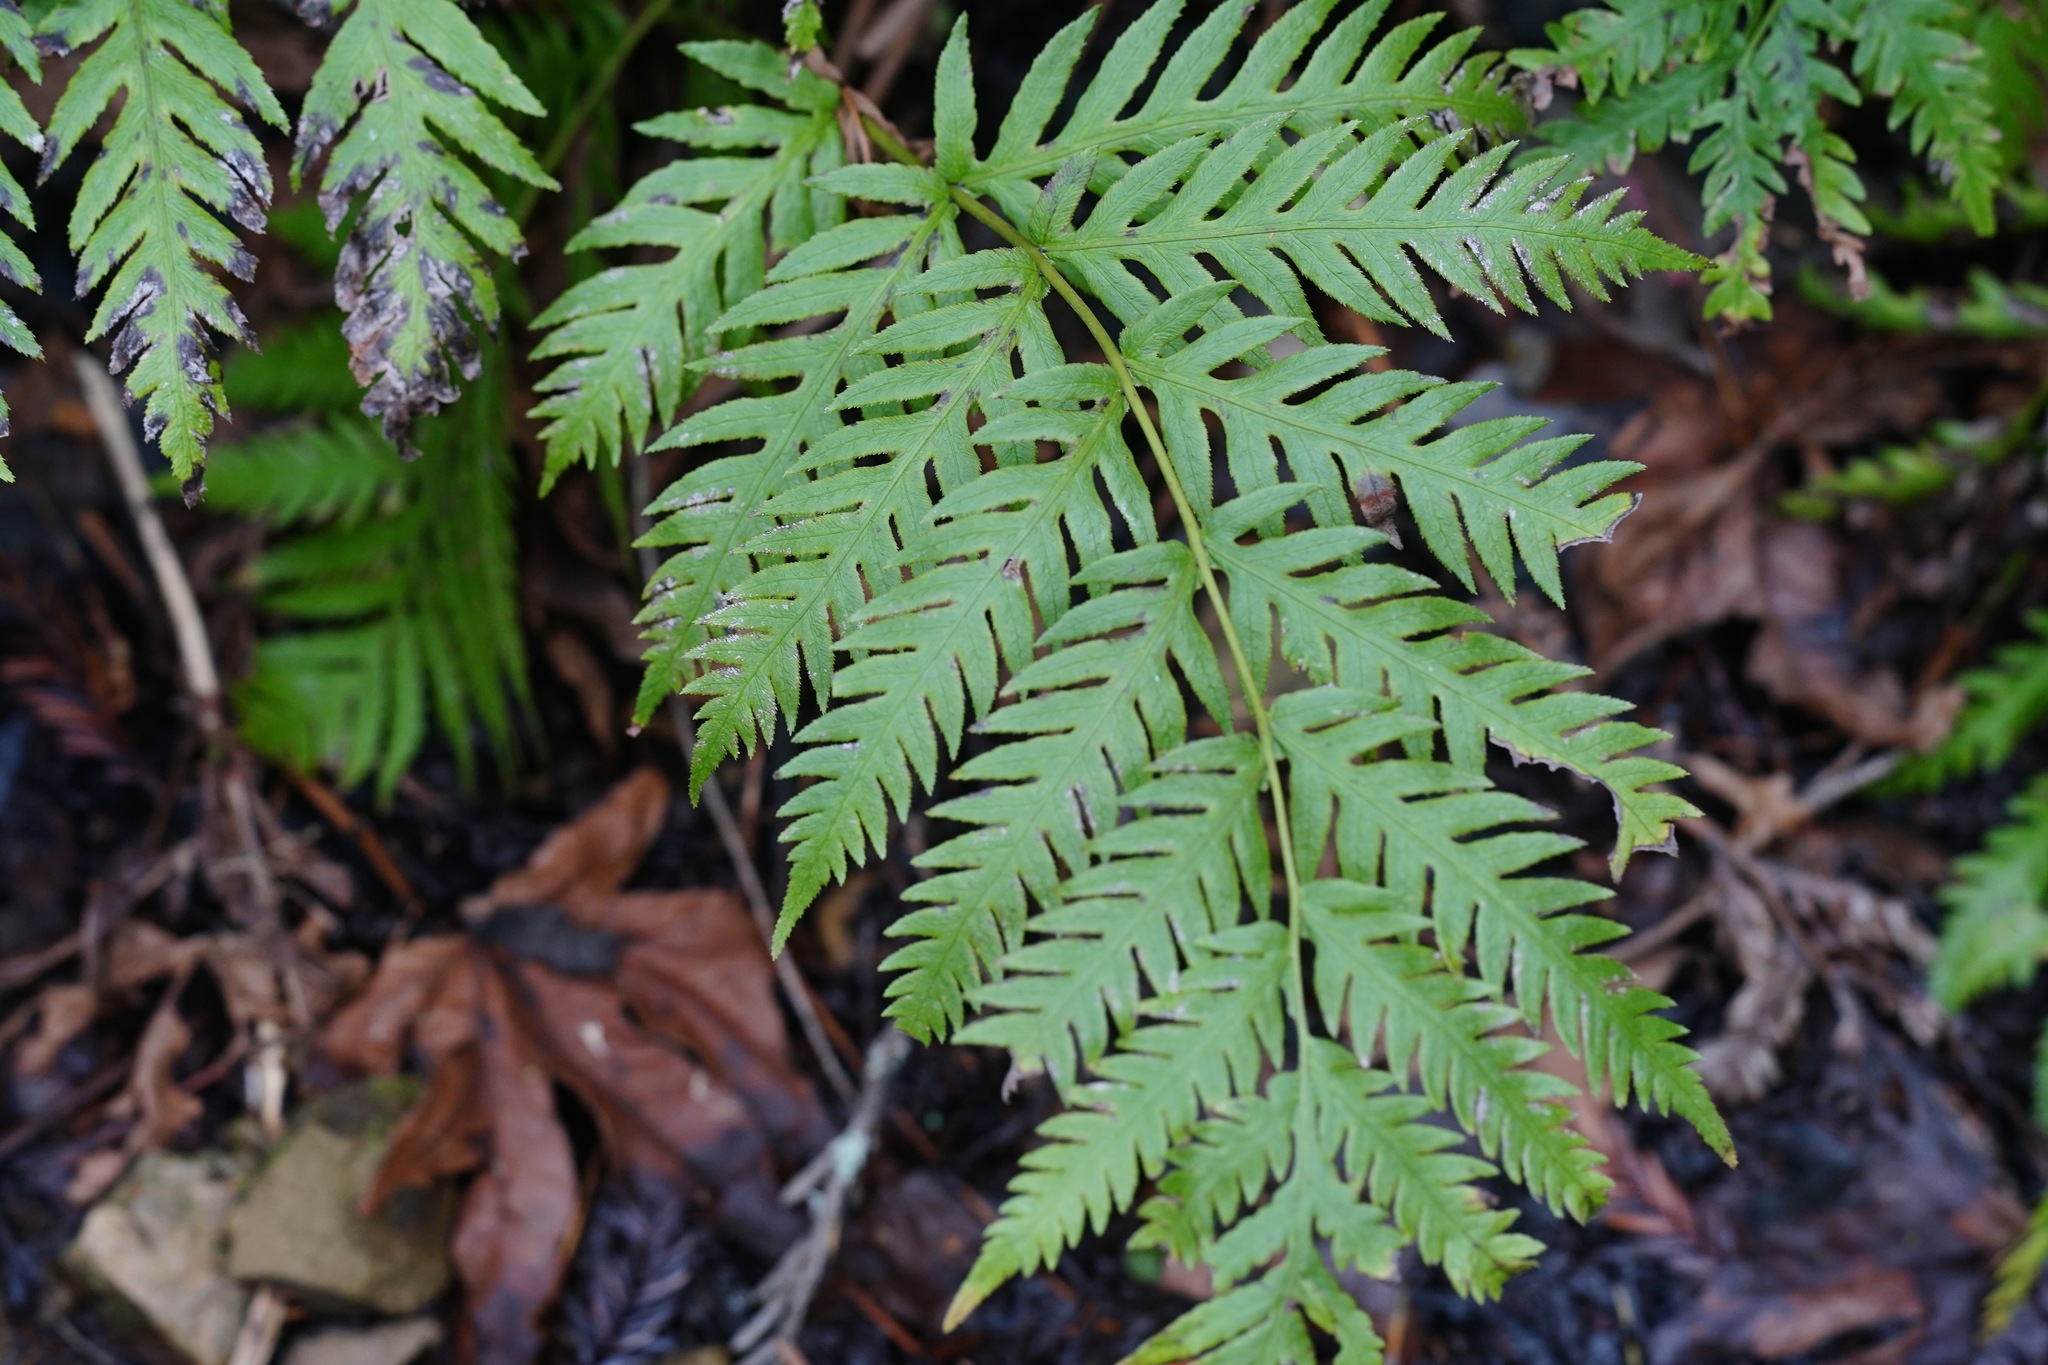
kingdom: Plantae
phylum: Tracheophyta
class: Polypodiopsida
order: Polypodiales
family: Blechnaceae
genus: Woodwardia
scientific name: Woodwardia fimbriata
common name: Giant chain fern
